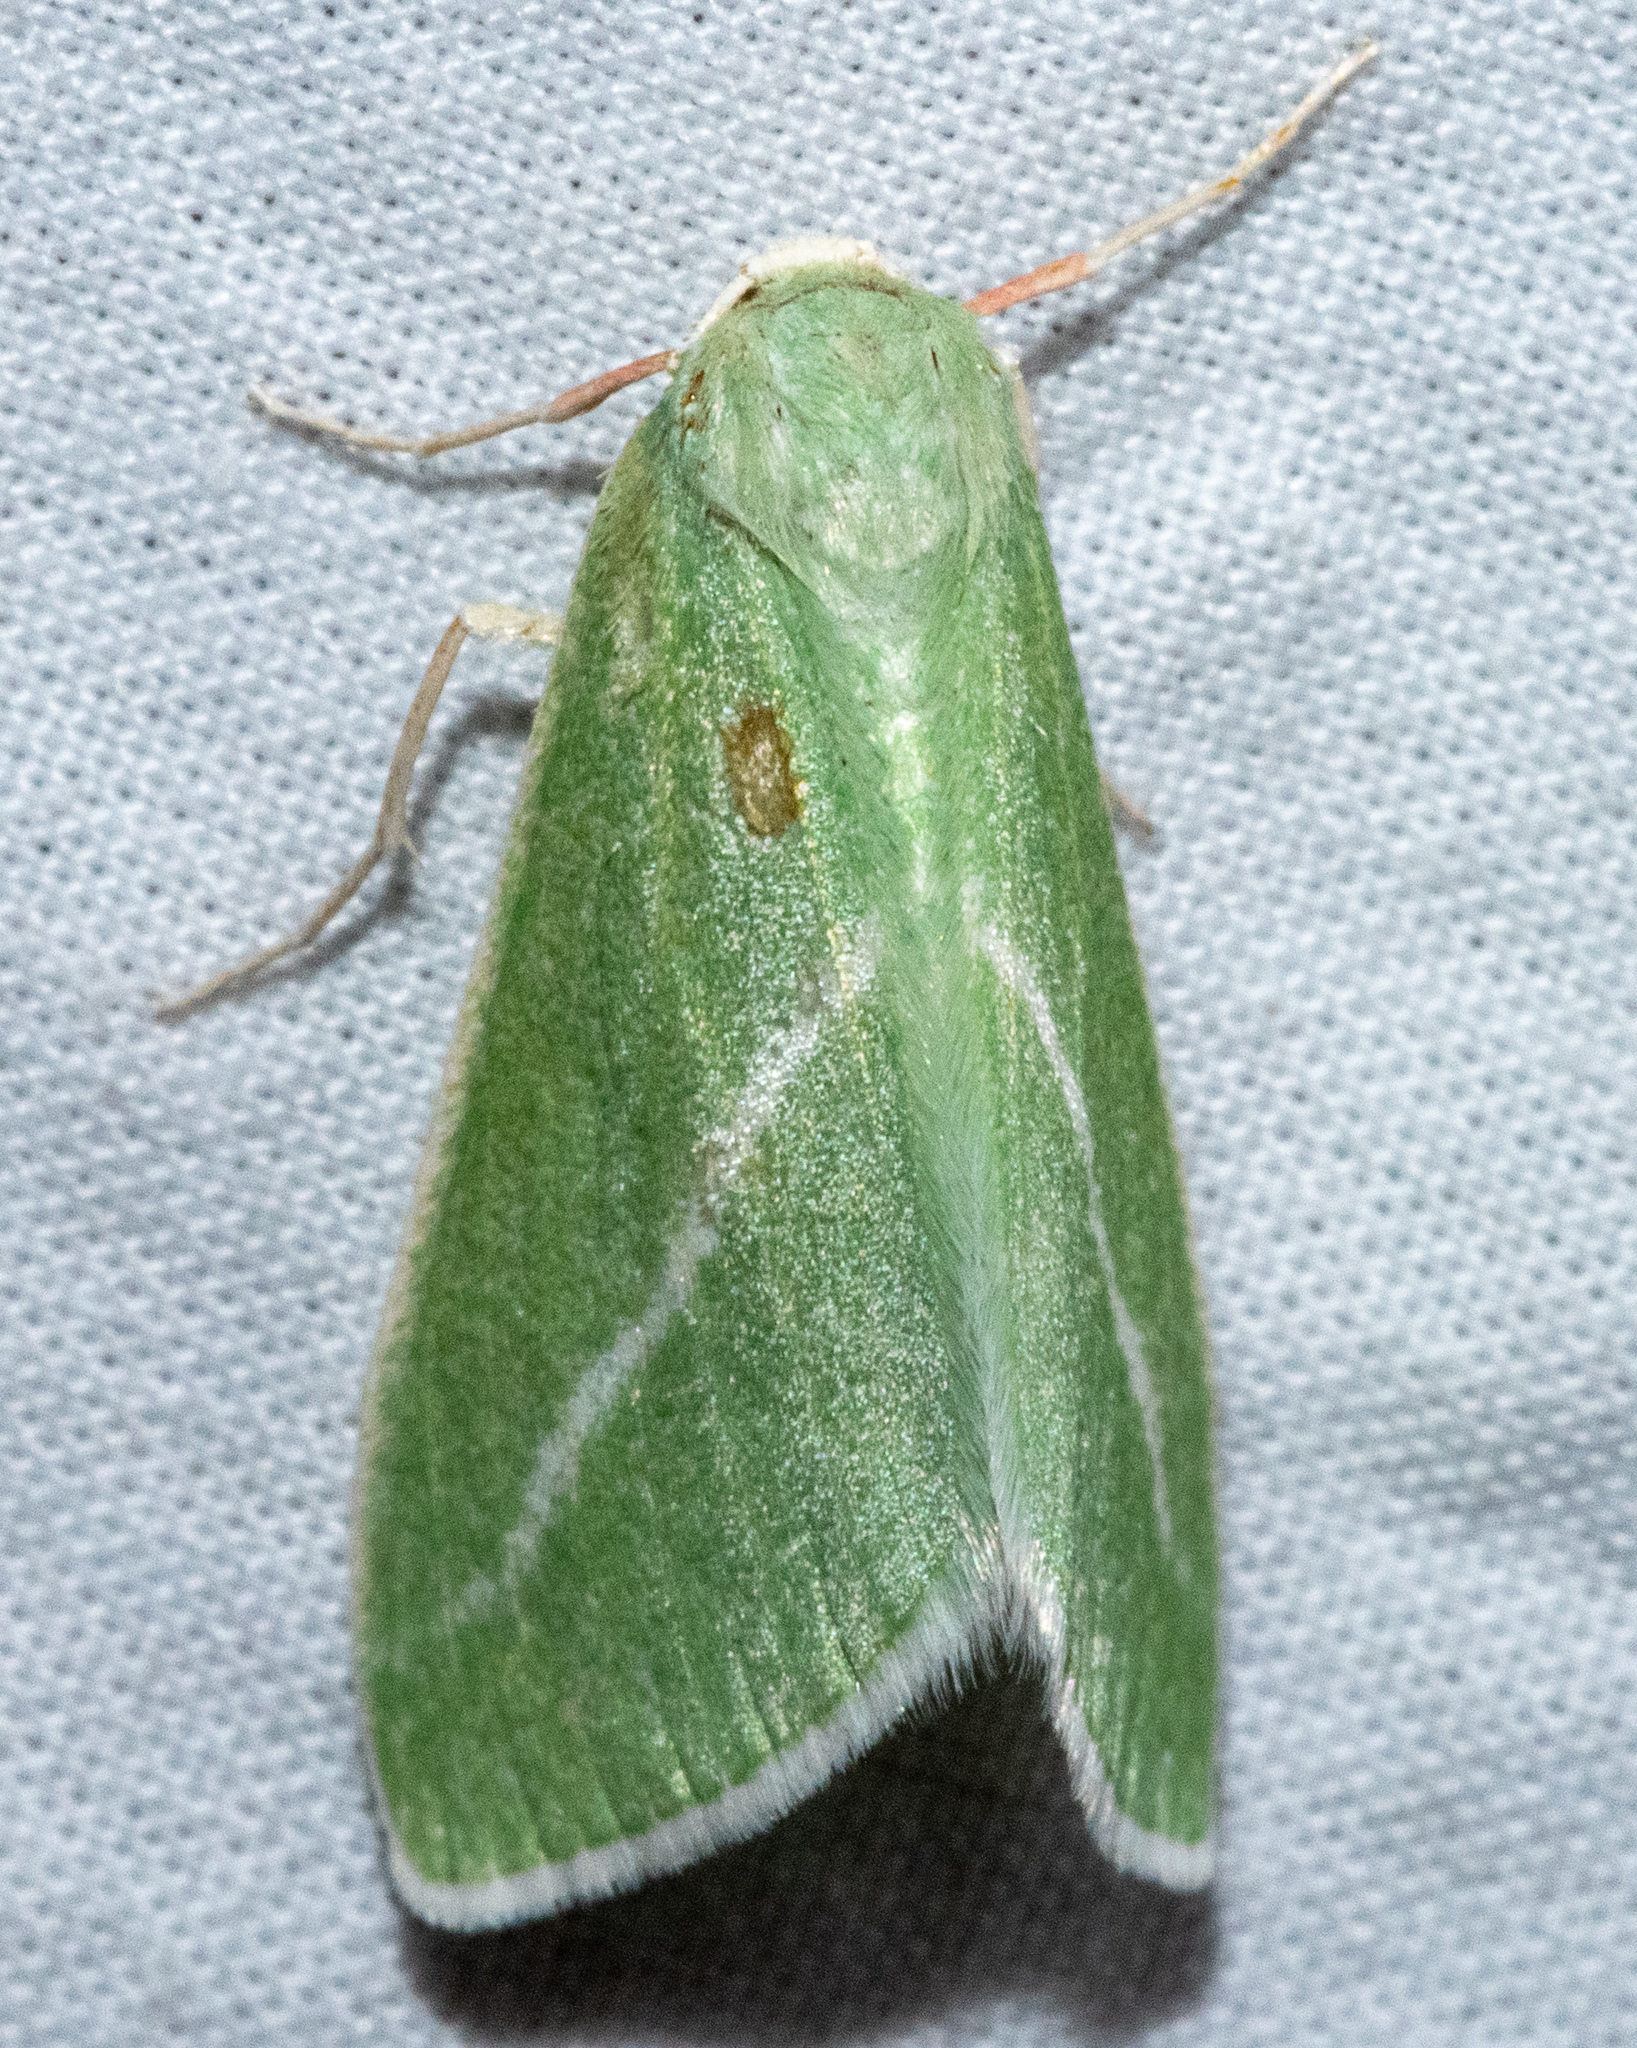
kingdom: Animalia
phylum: Arthropoda
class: Insecta
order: Lepidoptera
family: Geometridae
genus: Chlorosea
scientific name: Chlorosea margaretaria
